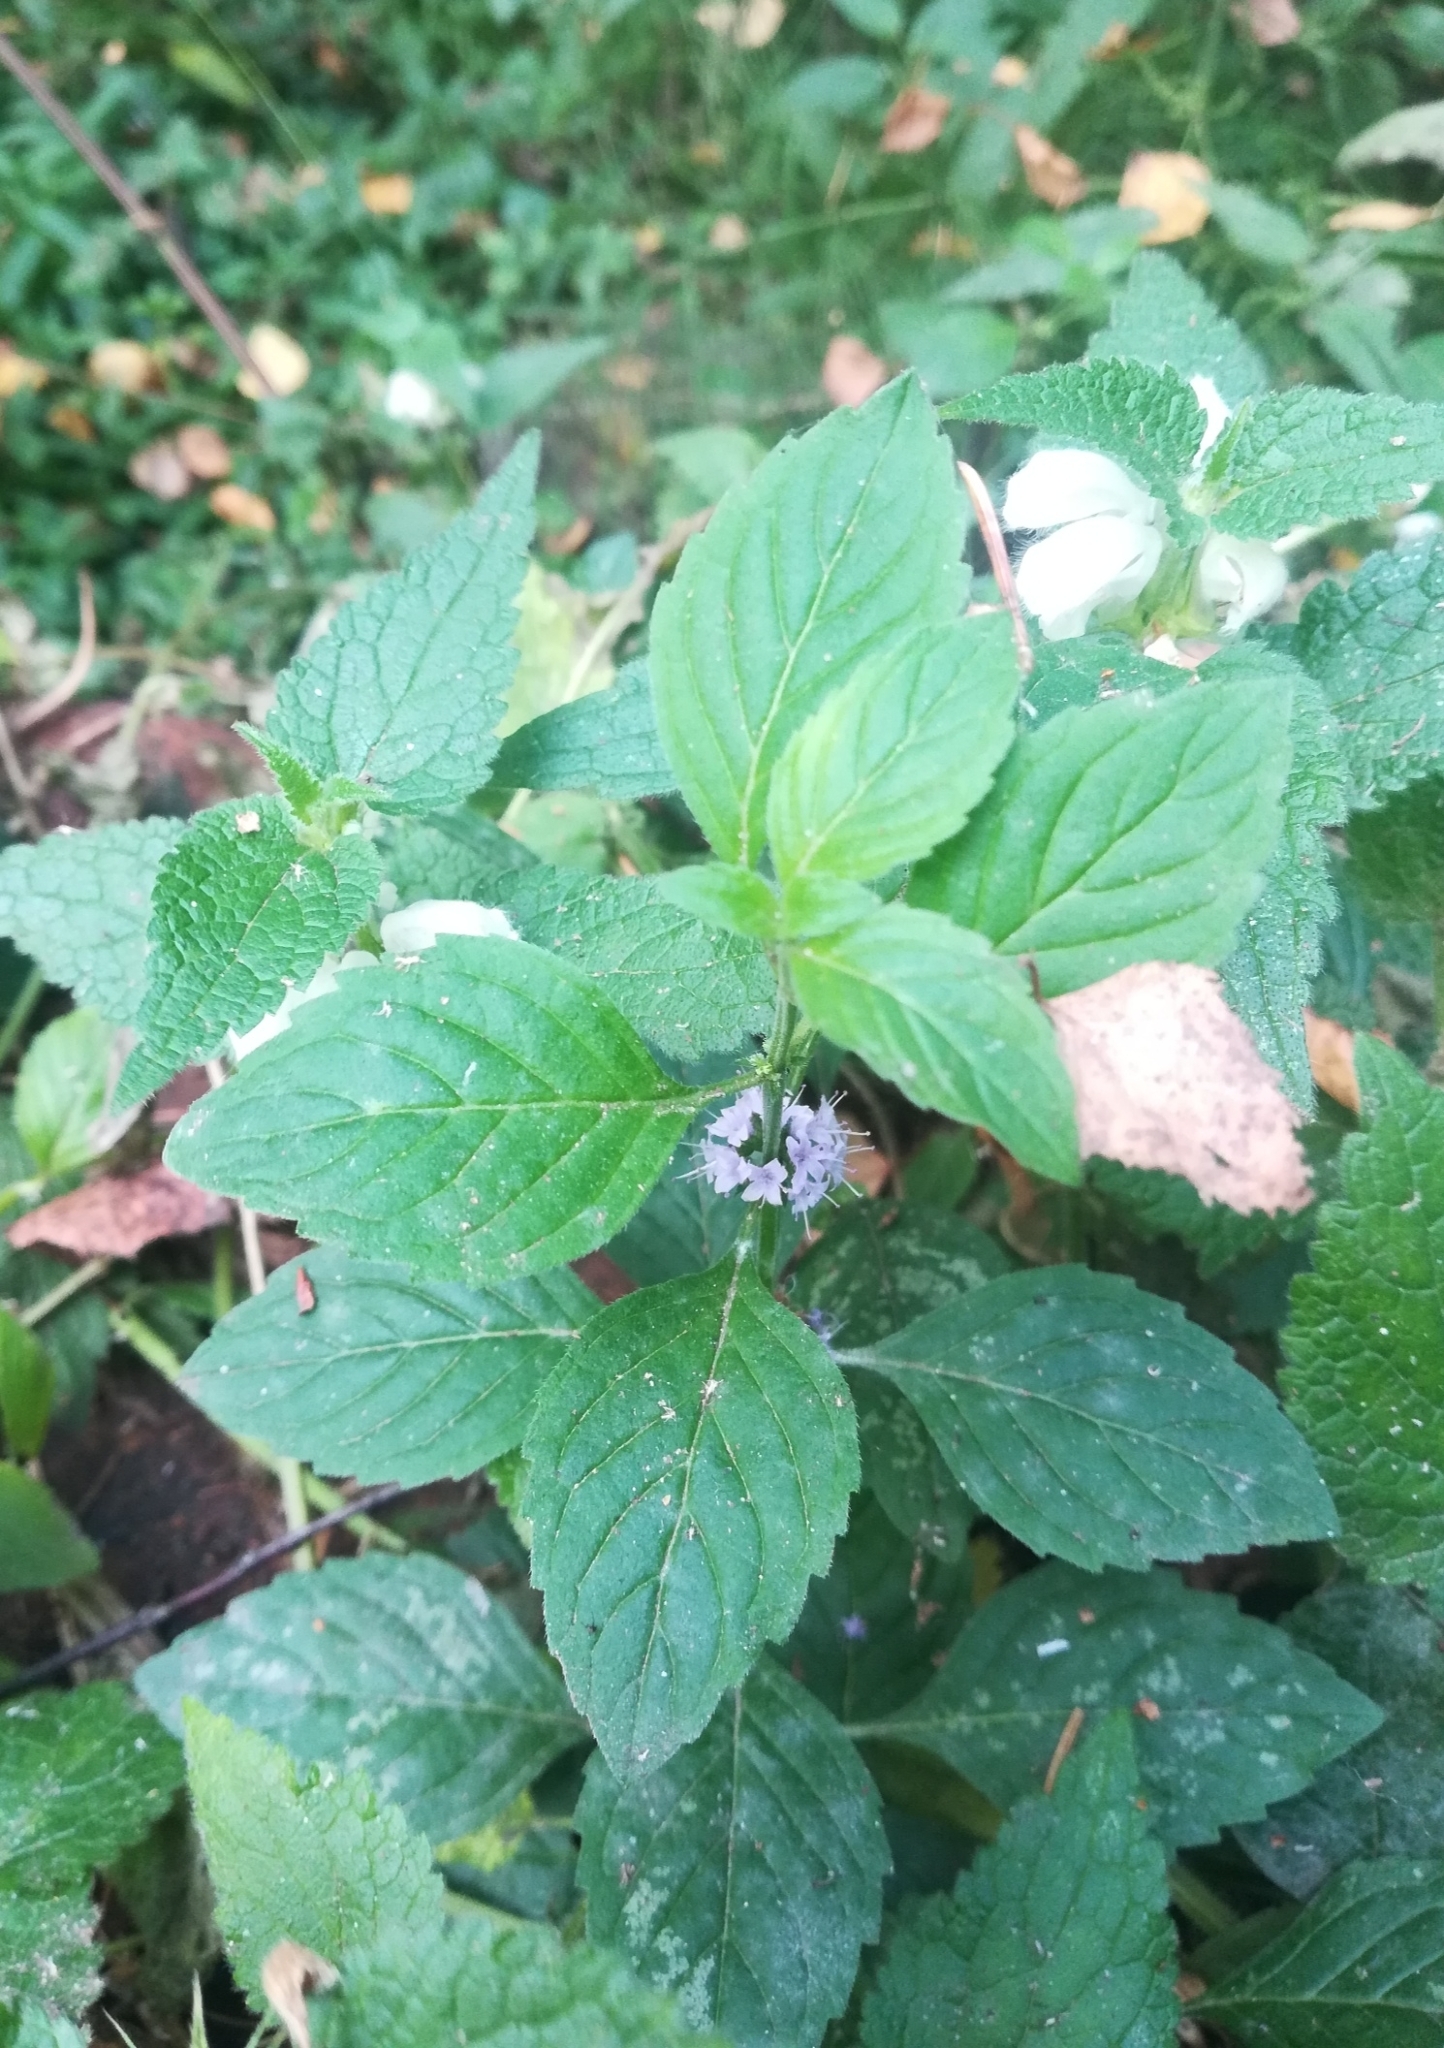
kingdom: Plantae
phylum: Tracheophyta
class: Magnoliopsida
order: Lamiales
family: Lamiaceae
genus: Mentha
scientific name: Mentha arvensis
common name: Corn mint
